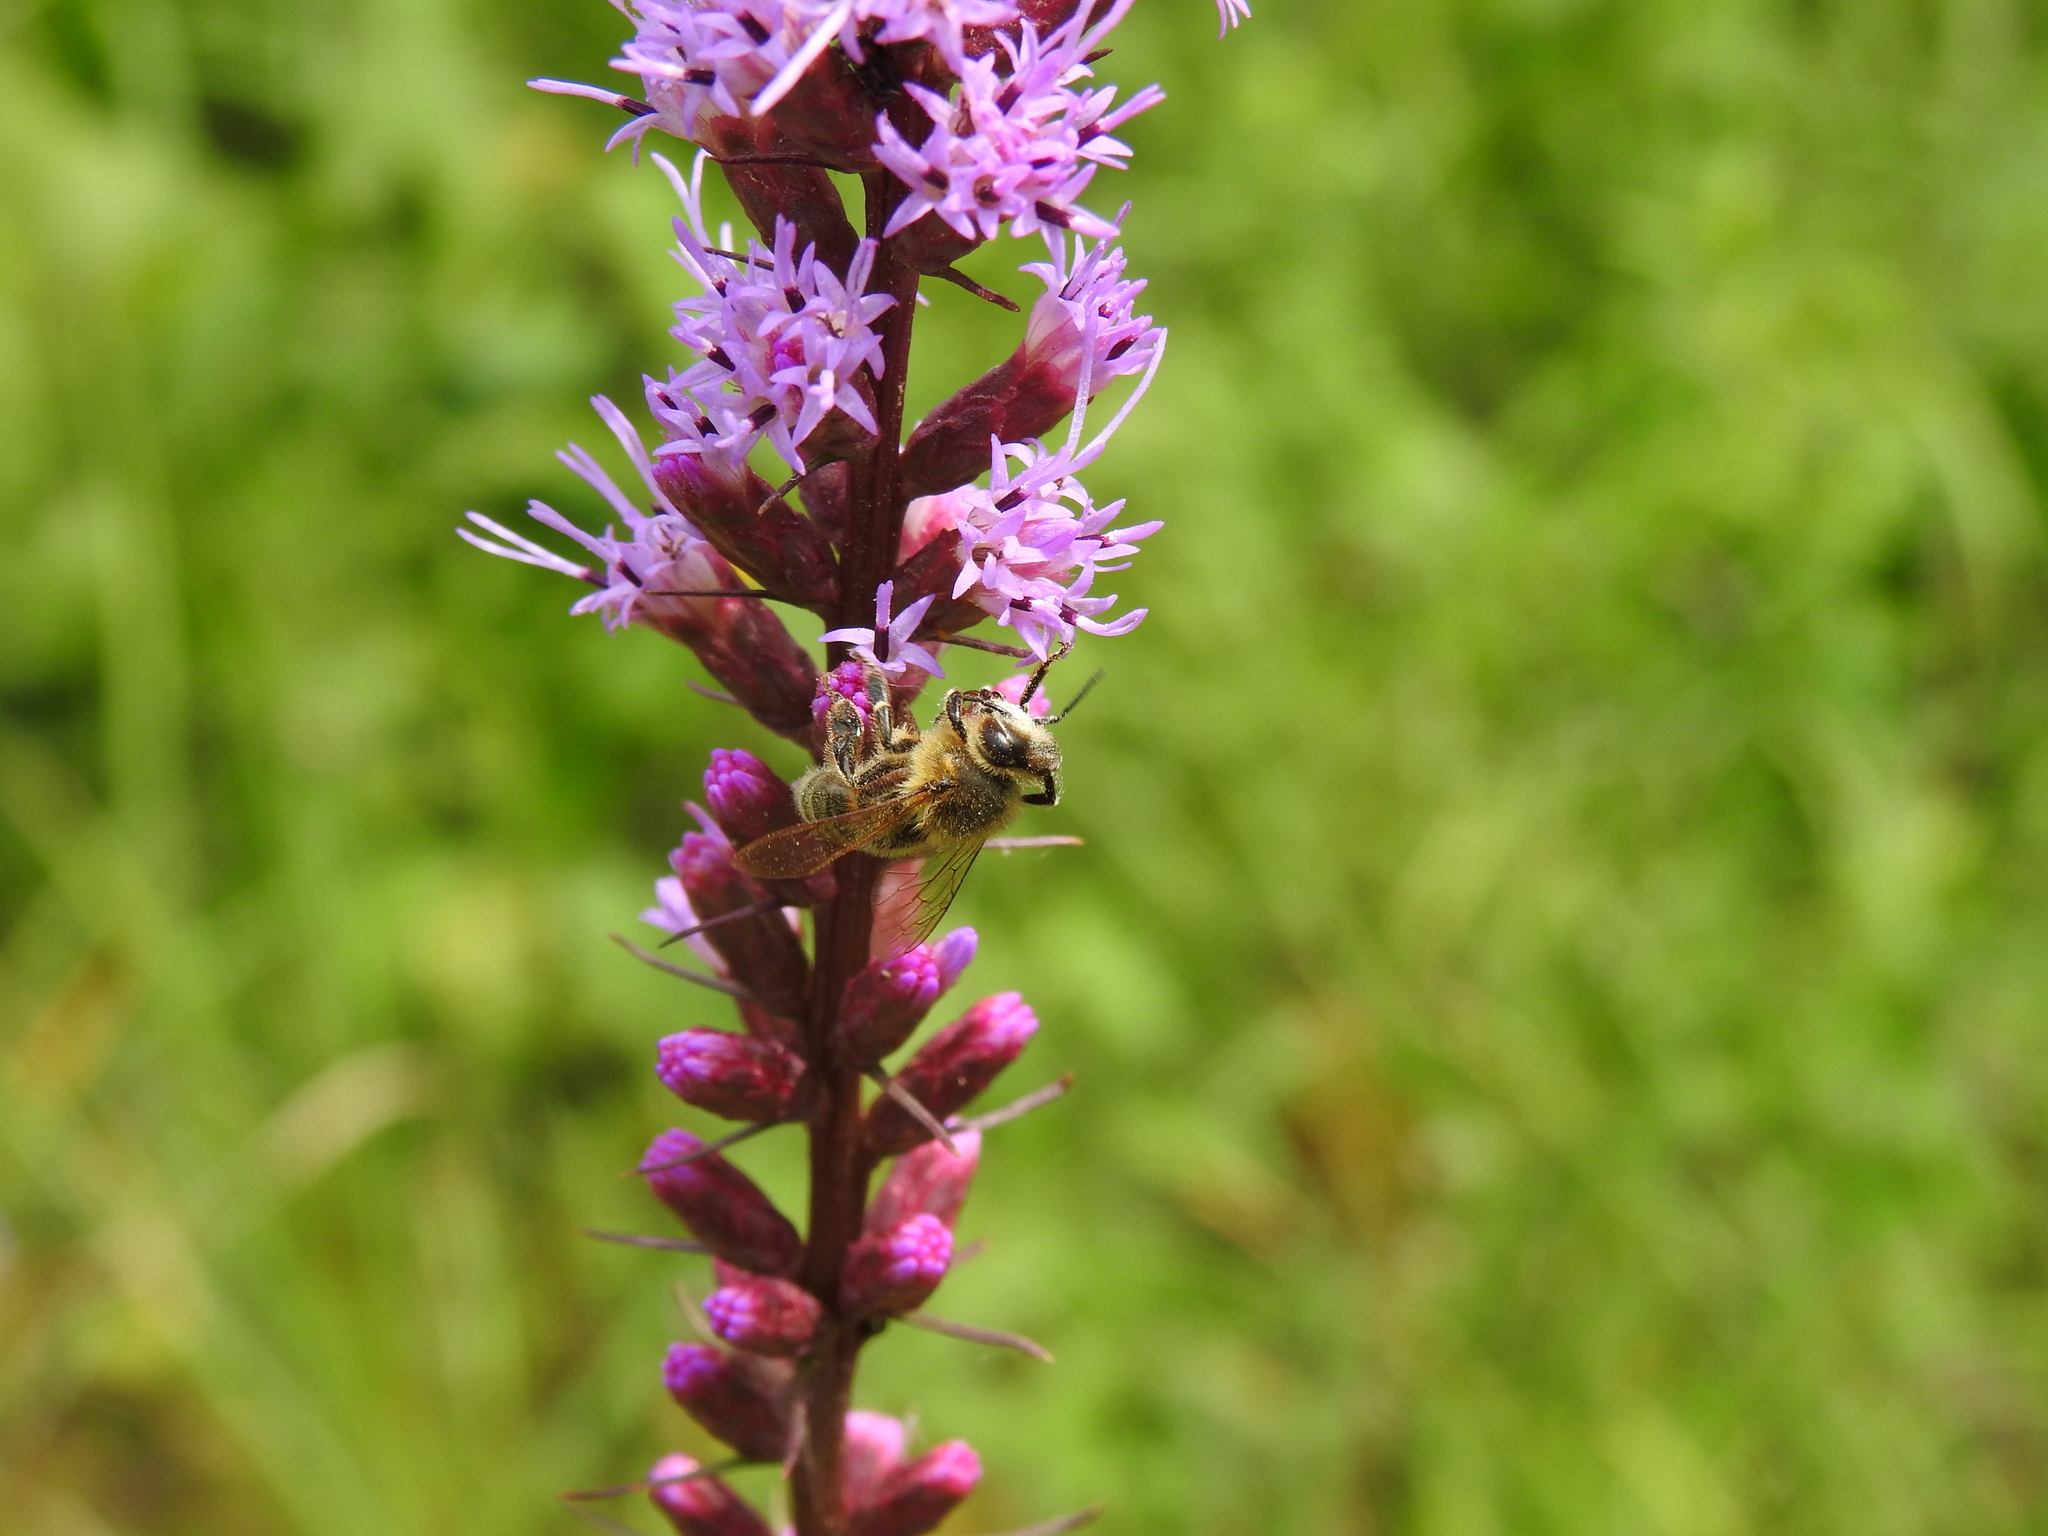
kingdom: Animalia
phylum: Arthropoda
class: Insecta
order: Hymenoptera
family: Apidae
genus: Apis
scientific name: Apis mellifera
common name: Honey bee
